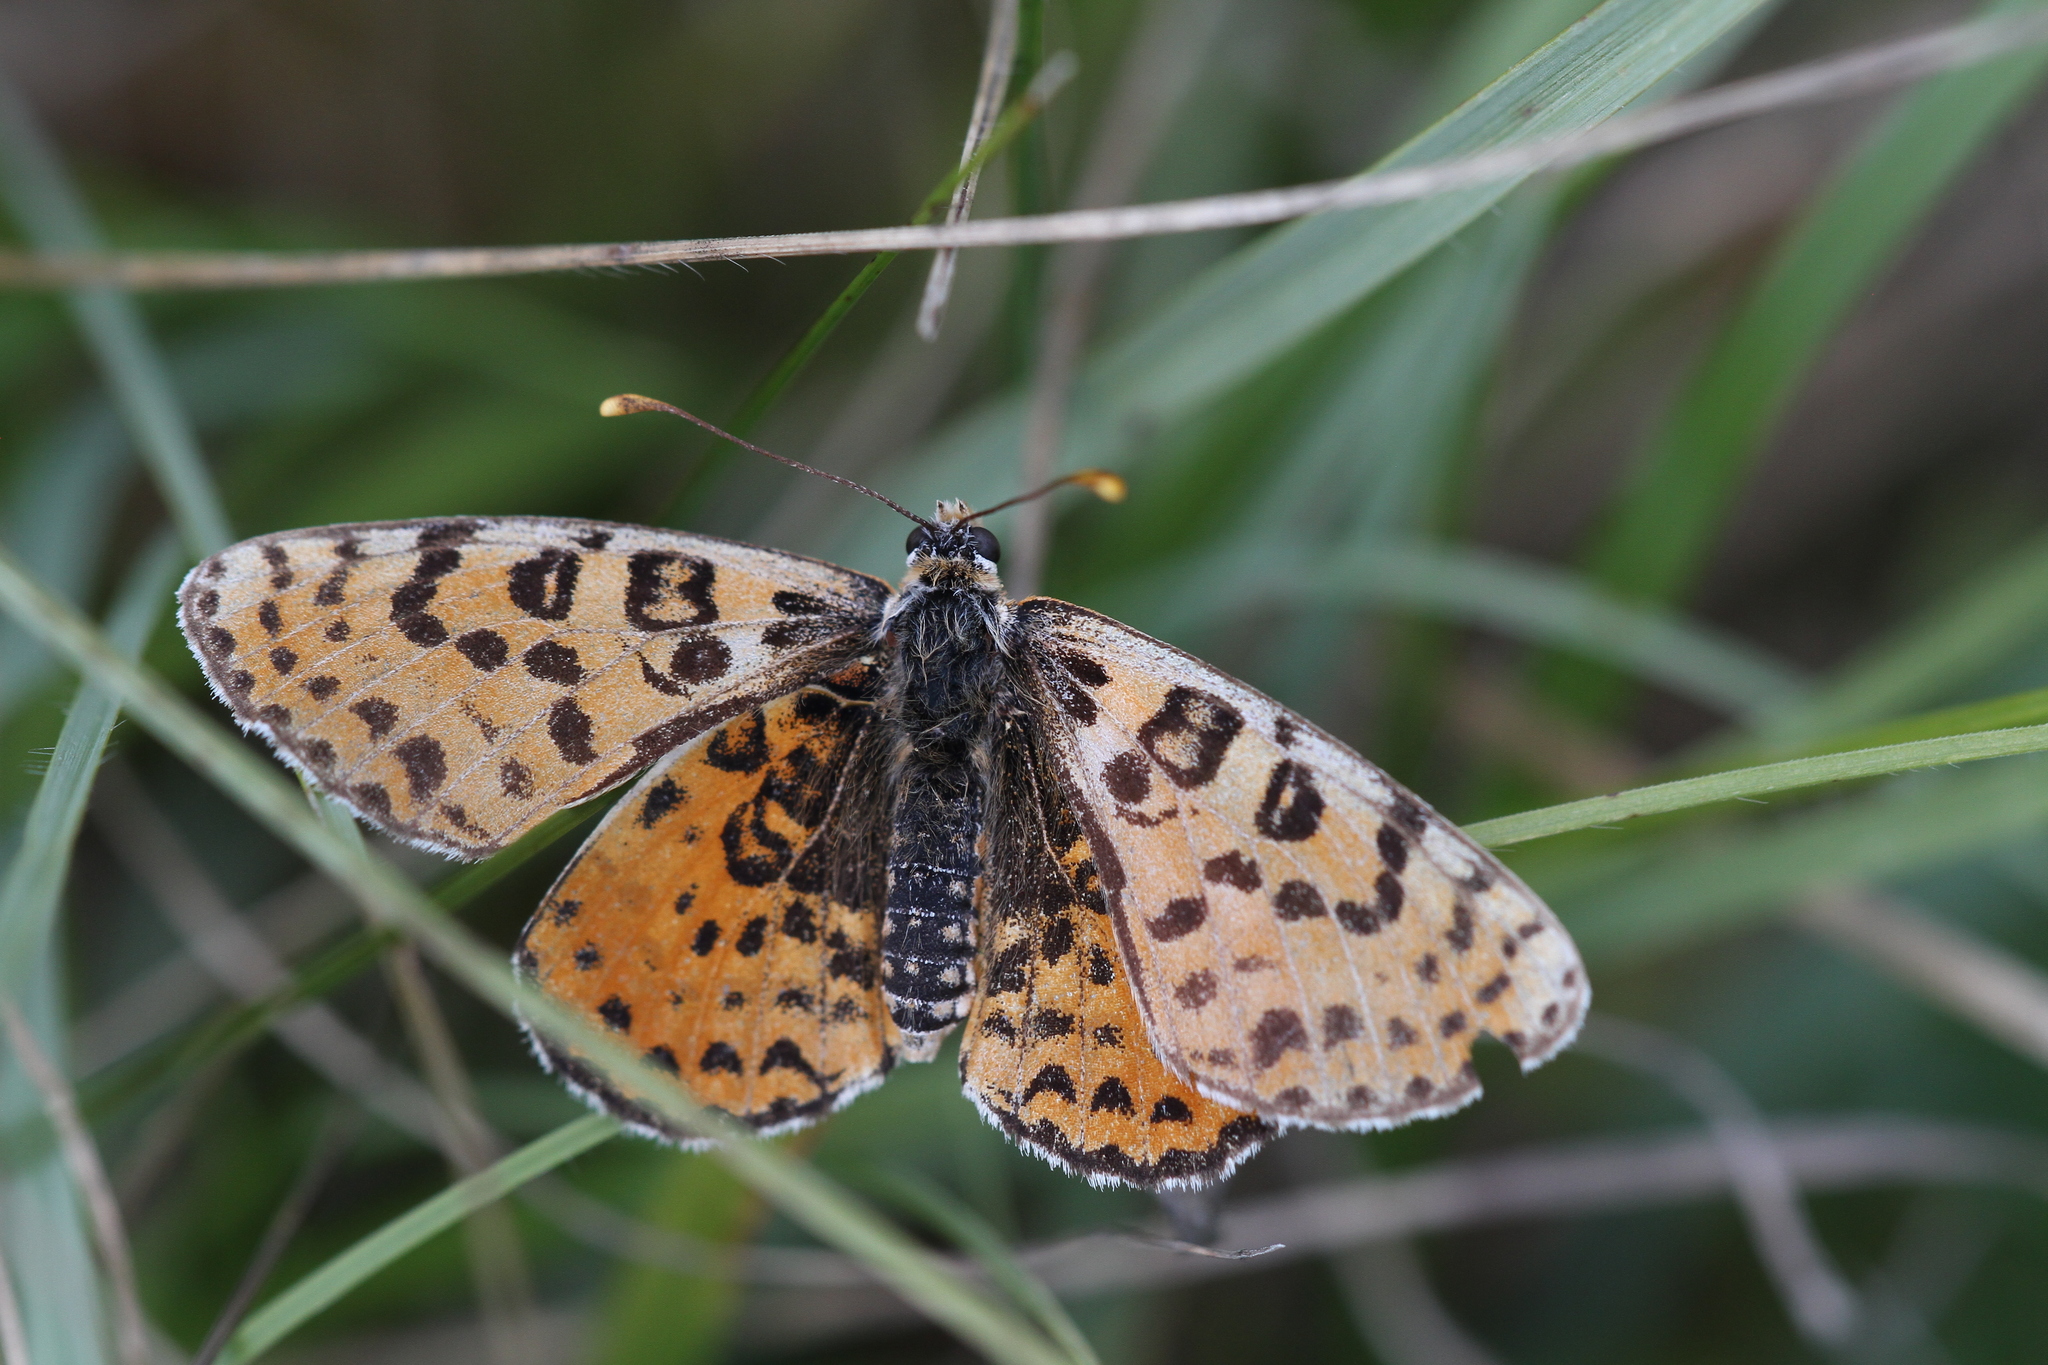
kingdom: Animalia
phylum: Arthropoda
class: Insecta
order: Lepidoptera
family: Nymphalidae
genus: Melitaea
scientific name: Melitaea didyma
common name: Spotted fritillary
